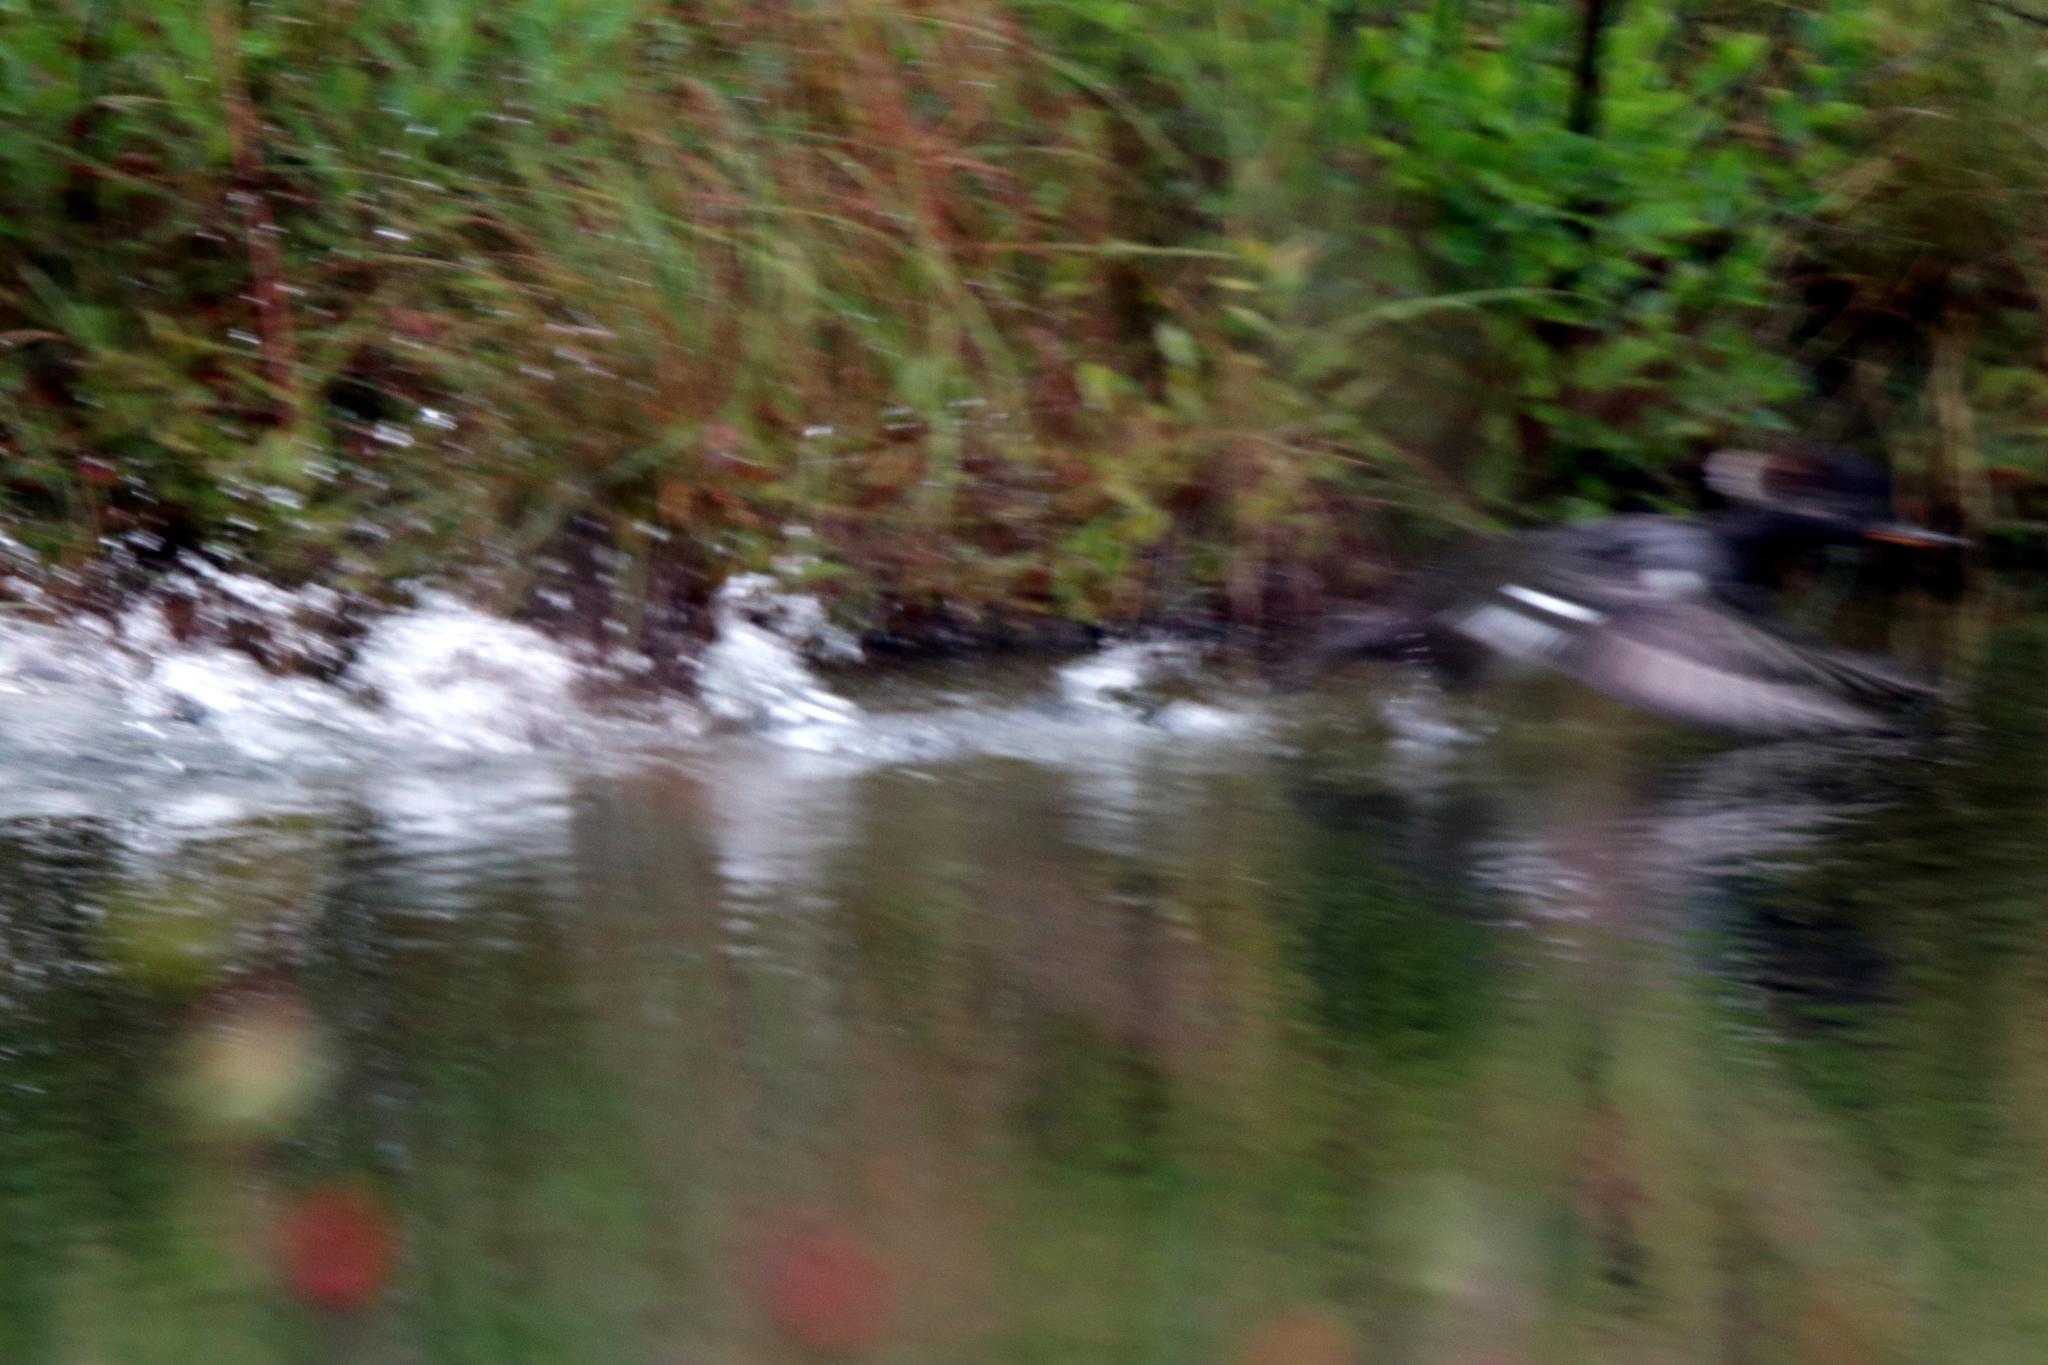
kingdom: Animalia
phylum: Chordata
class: Aves
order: Anseriformes
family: Anatidae
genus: Lophodytes
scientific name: Lophodytes cucullatus
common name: Hooded merganser
